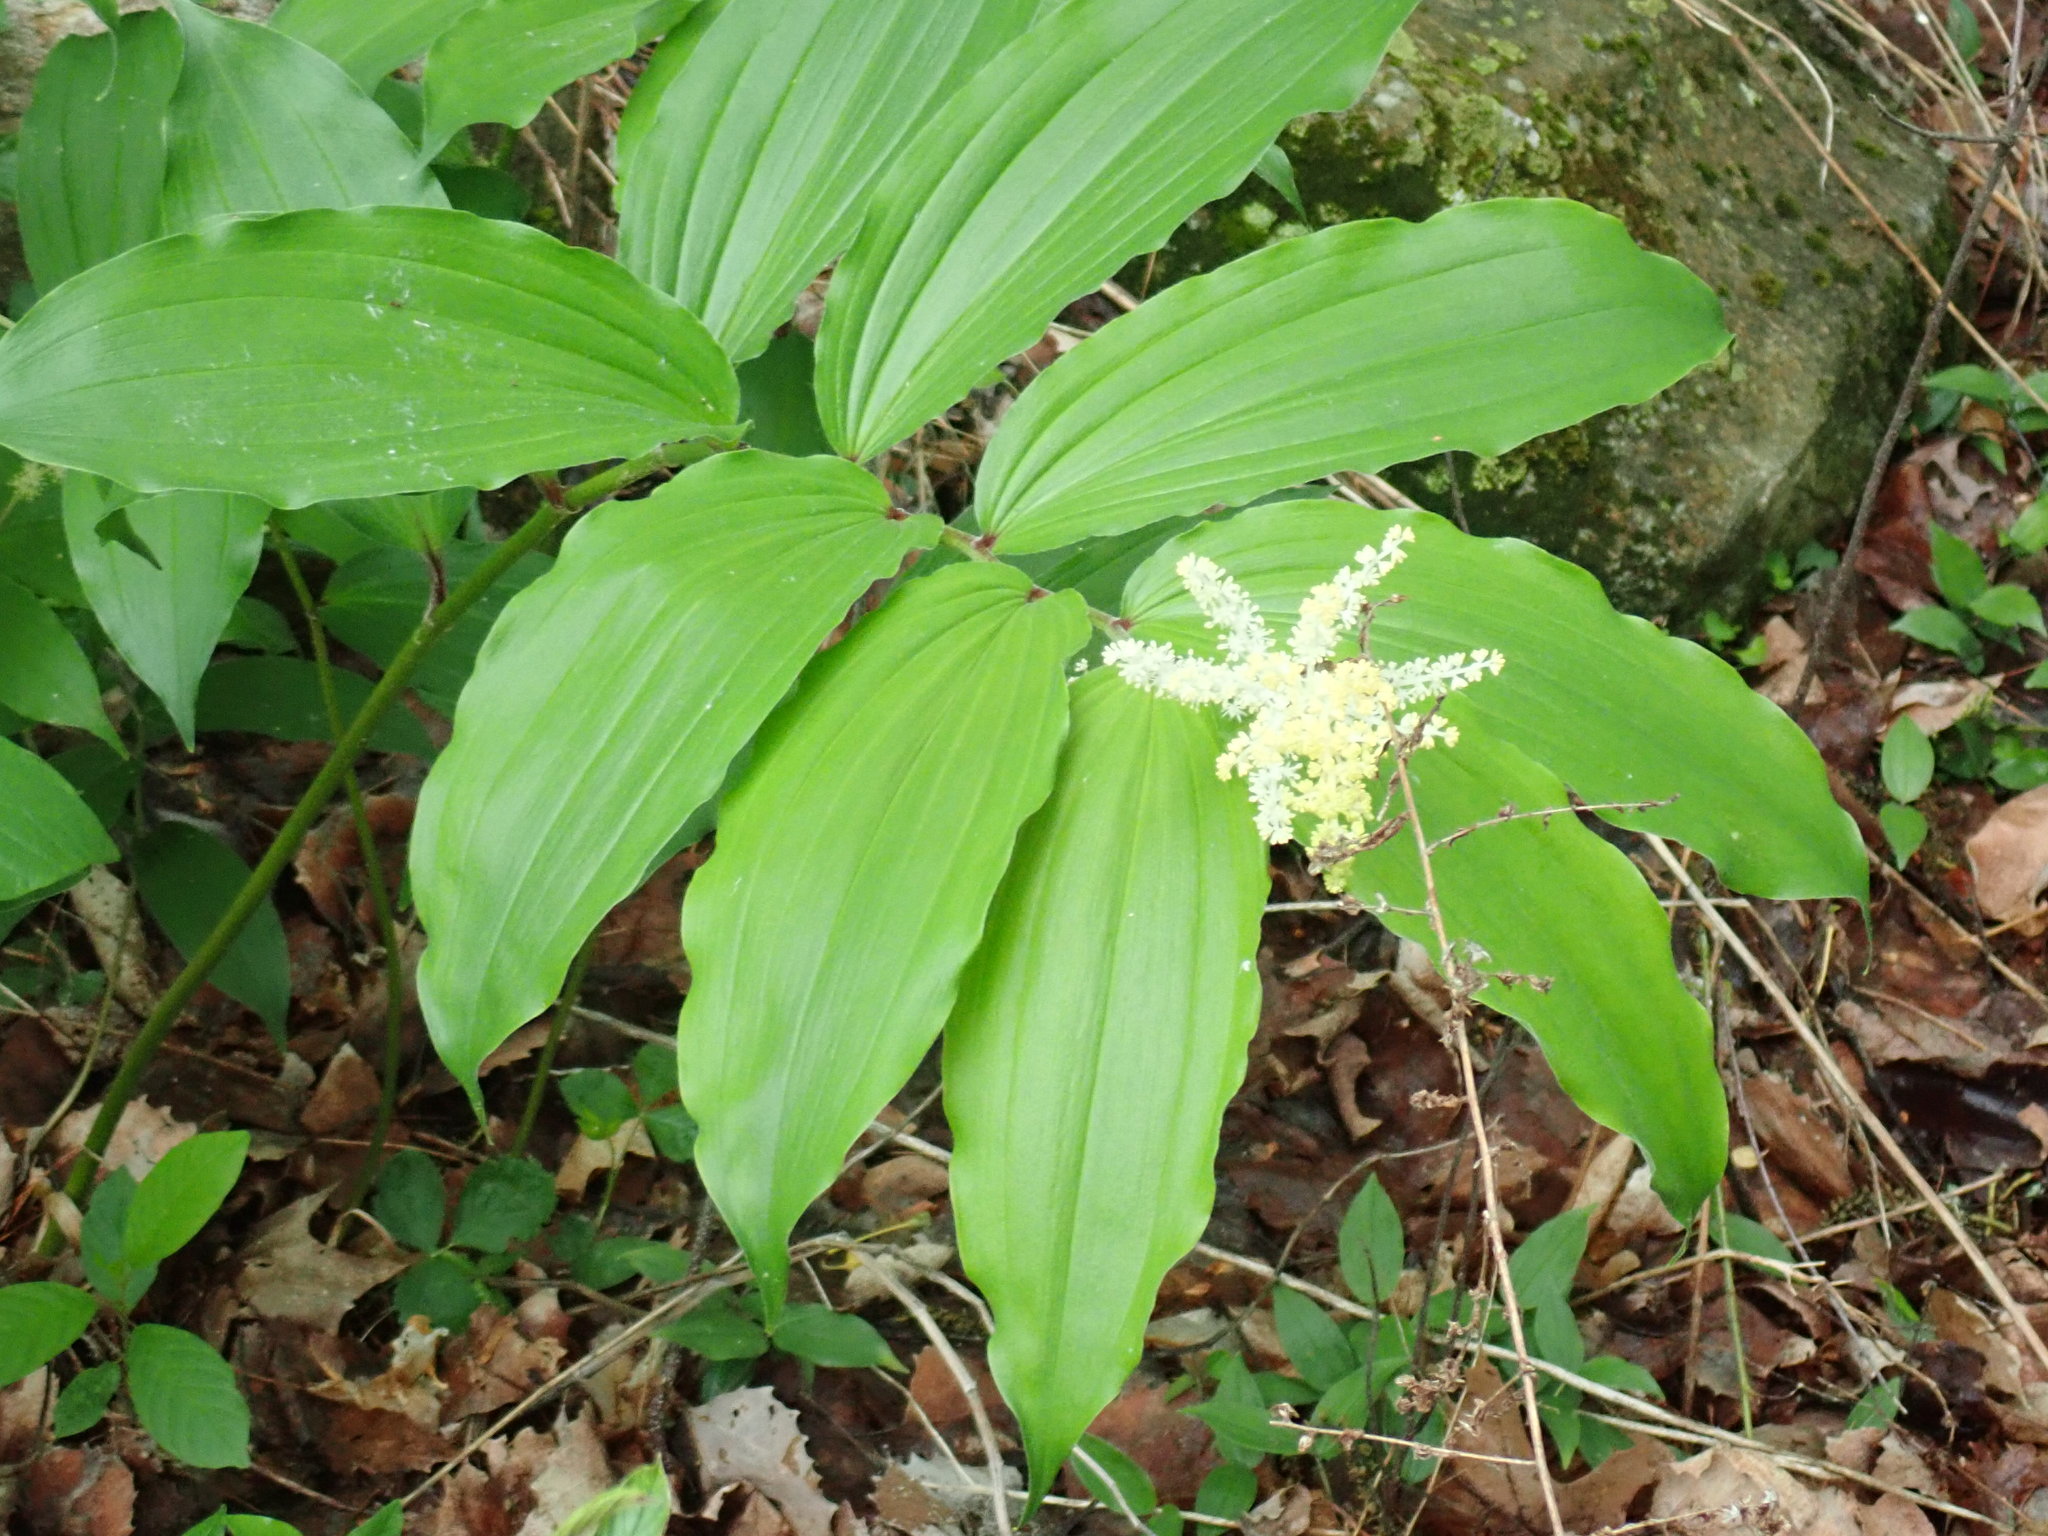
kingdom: Plantae
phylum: Tracheophyta
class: Liliopsida
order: Asparagales
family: Asparagaceae
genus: Maianthemum
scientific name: Maianthemum racemosum
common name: False spikenard
